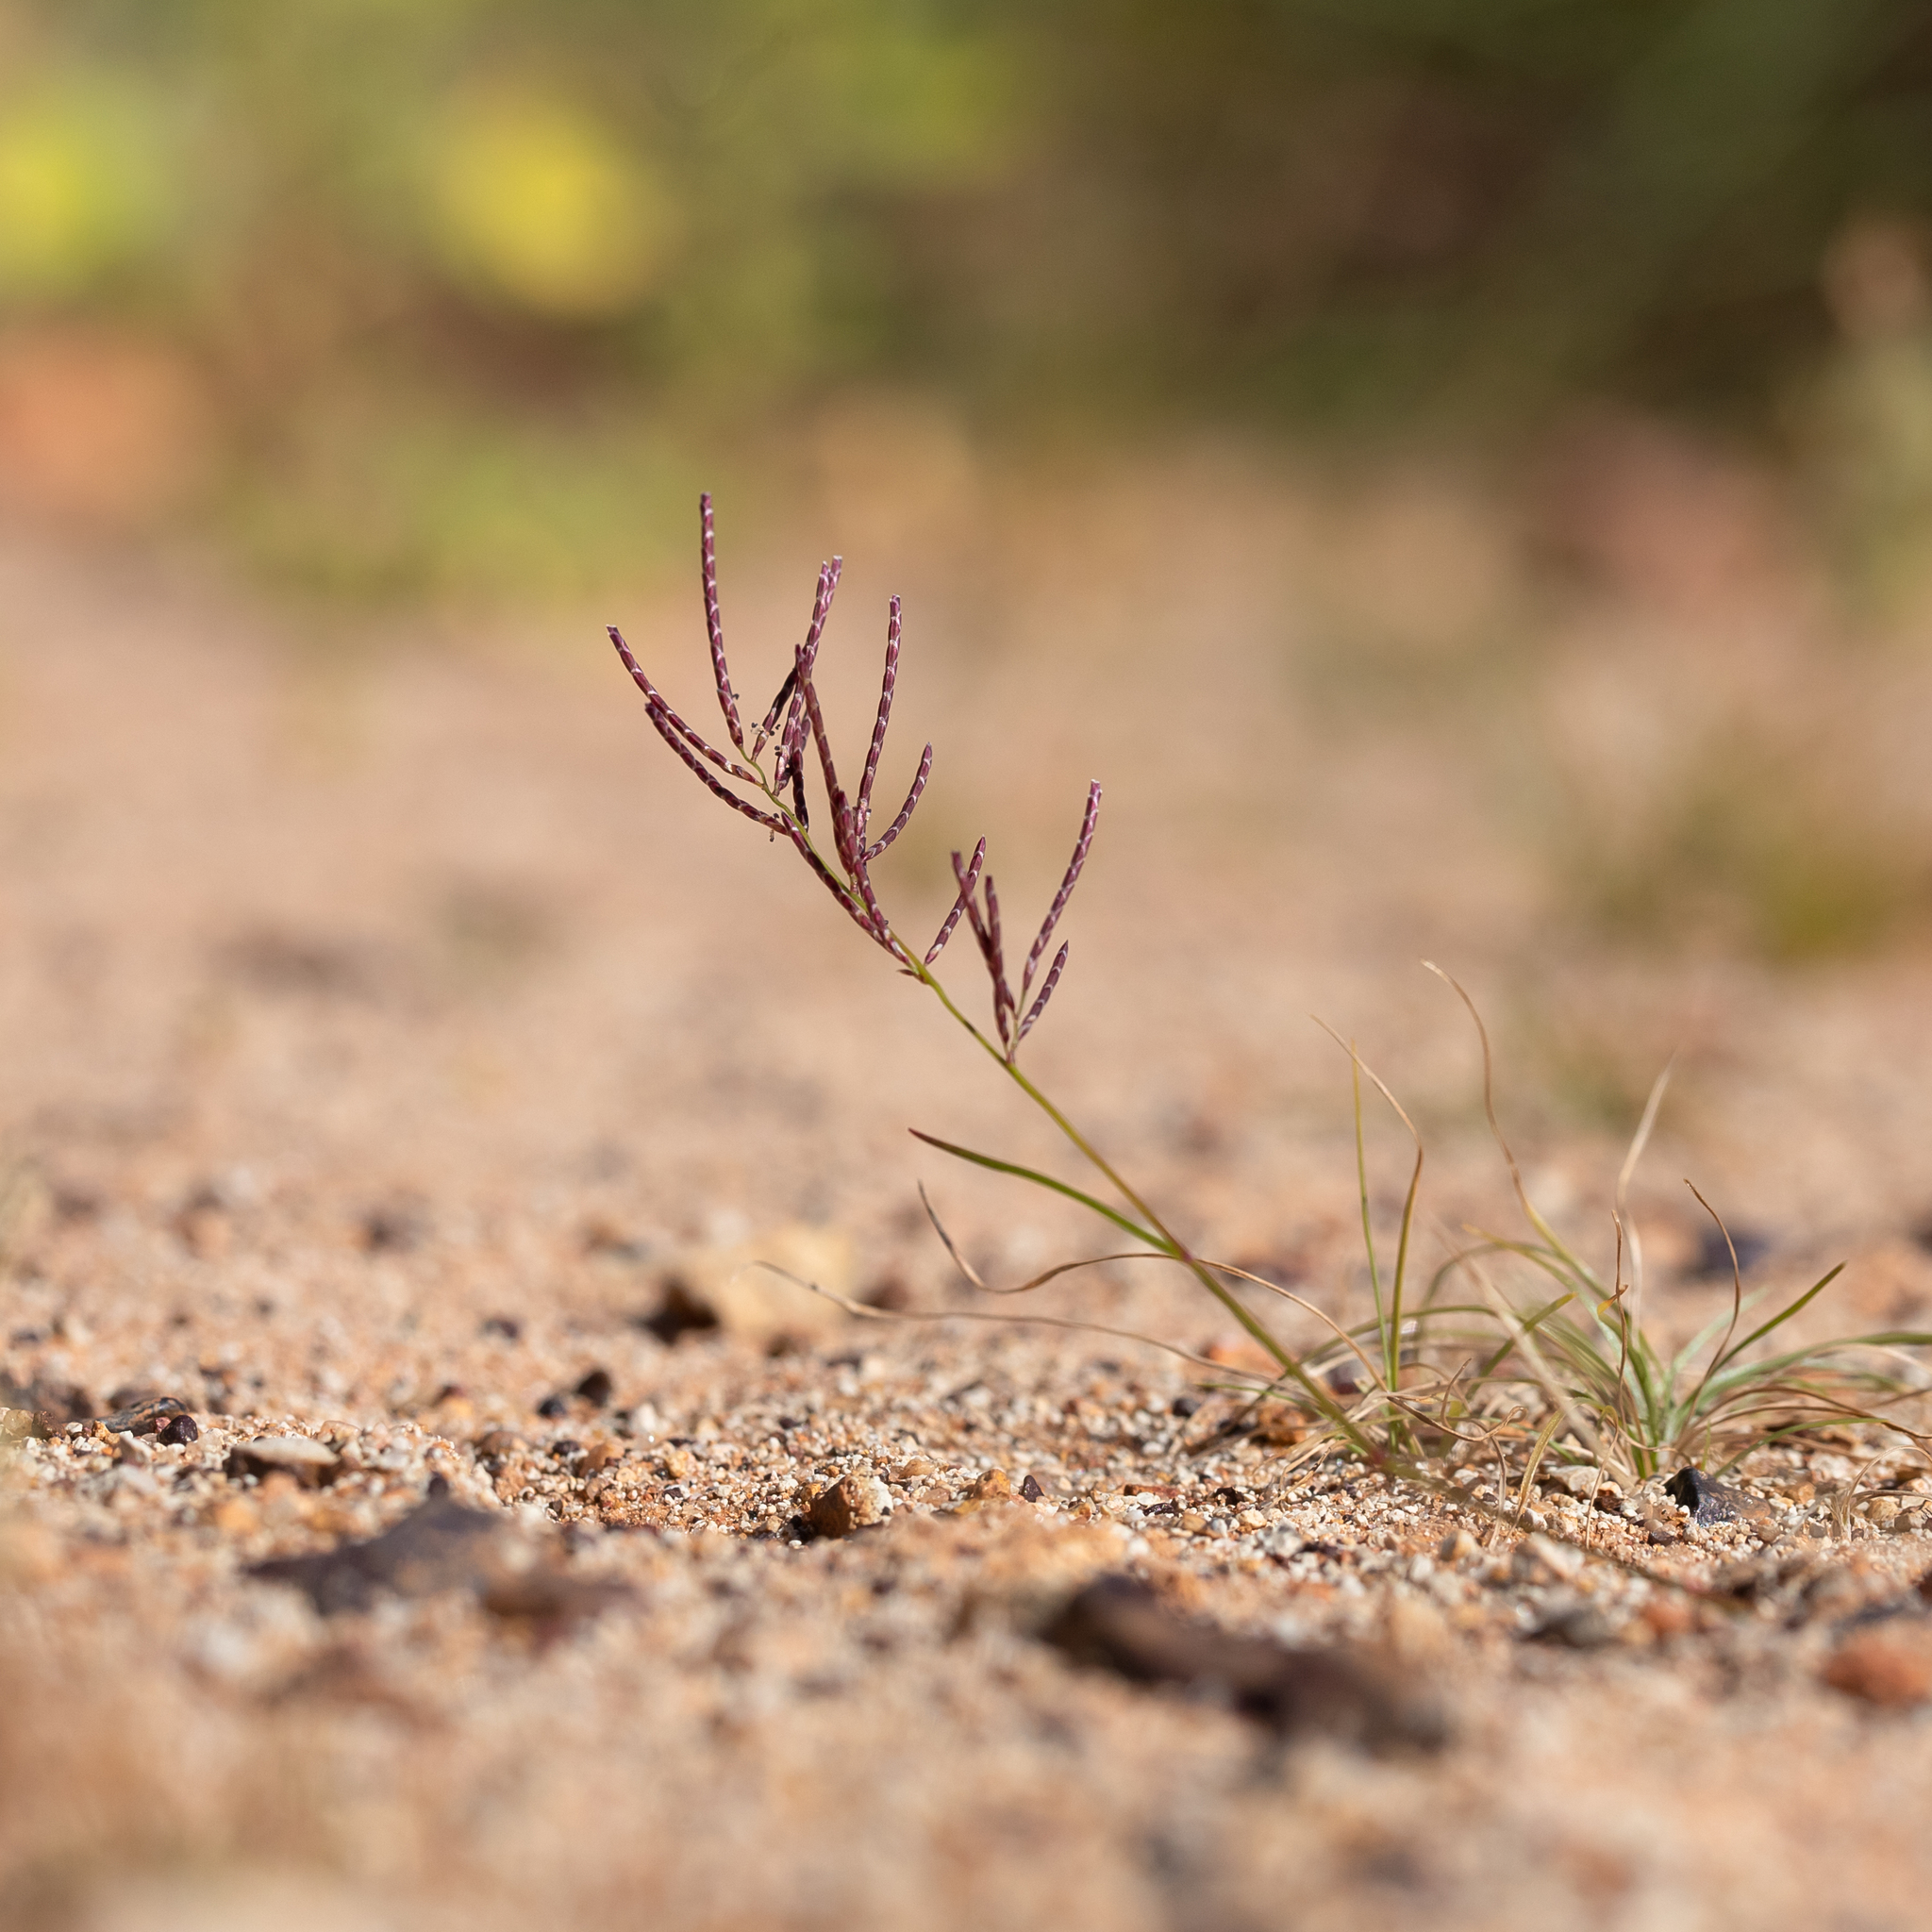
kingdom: Plantae
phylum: Tracheophyta
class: Liliopsida
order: Poales
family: Poaceae
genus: Eragrostis
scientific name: Eragrostis pergracilis
